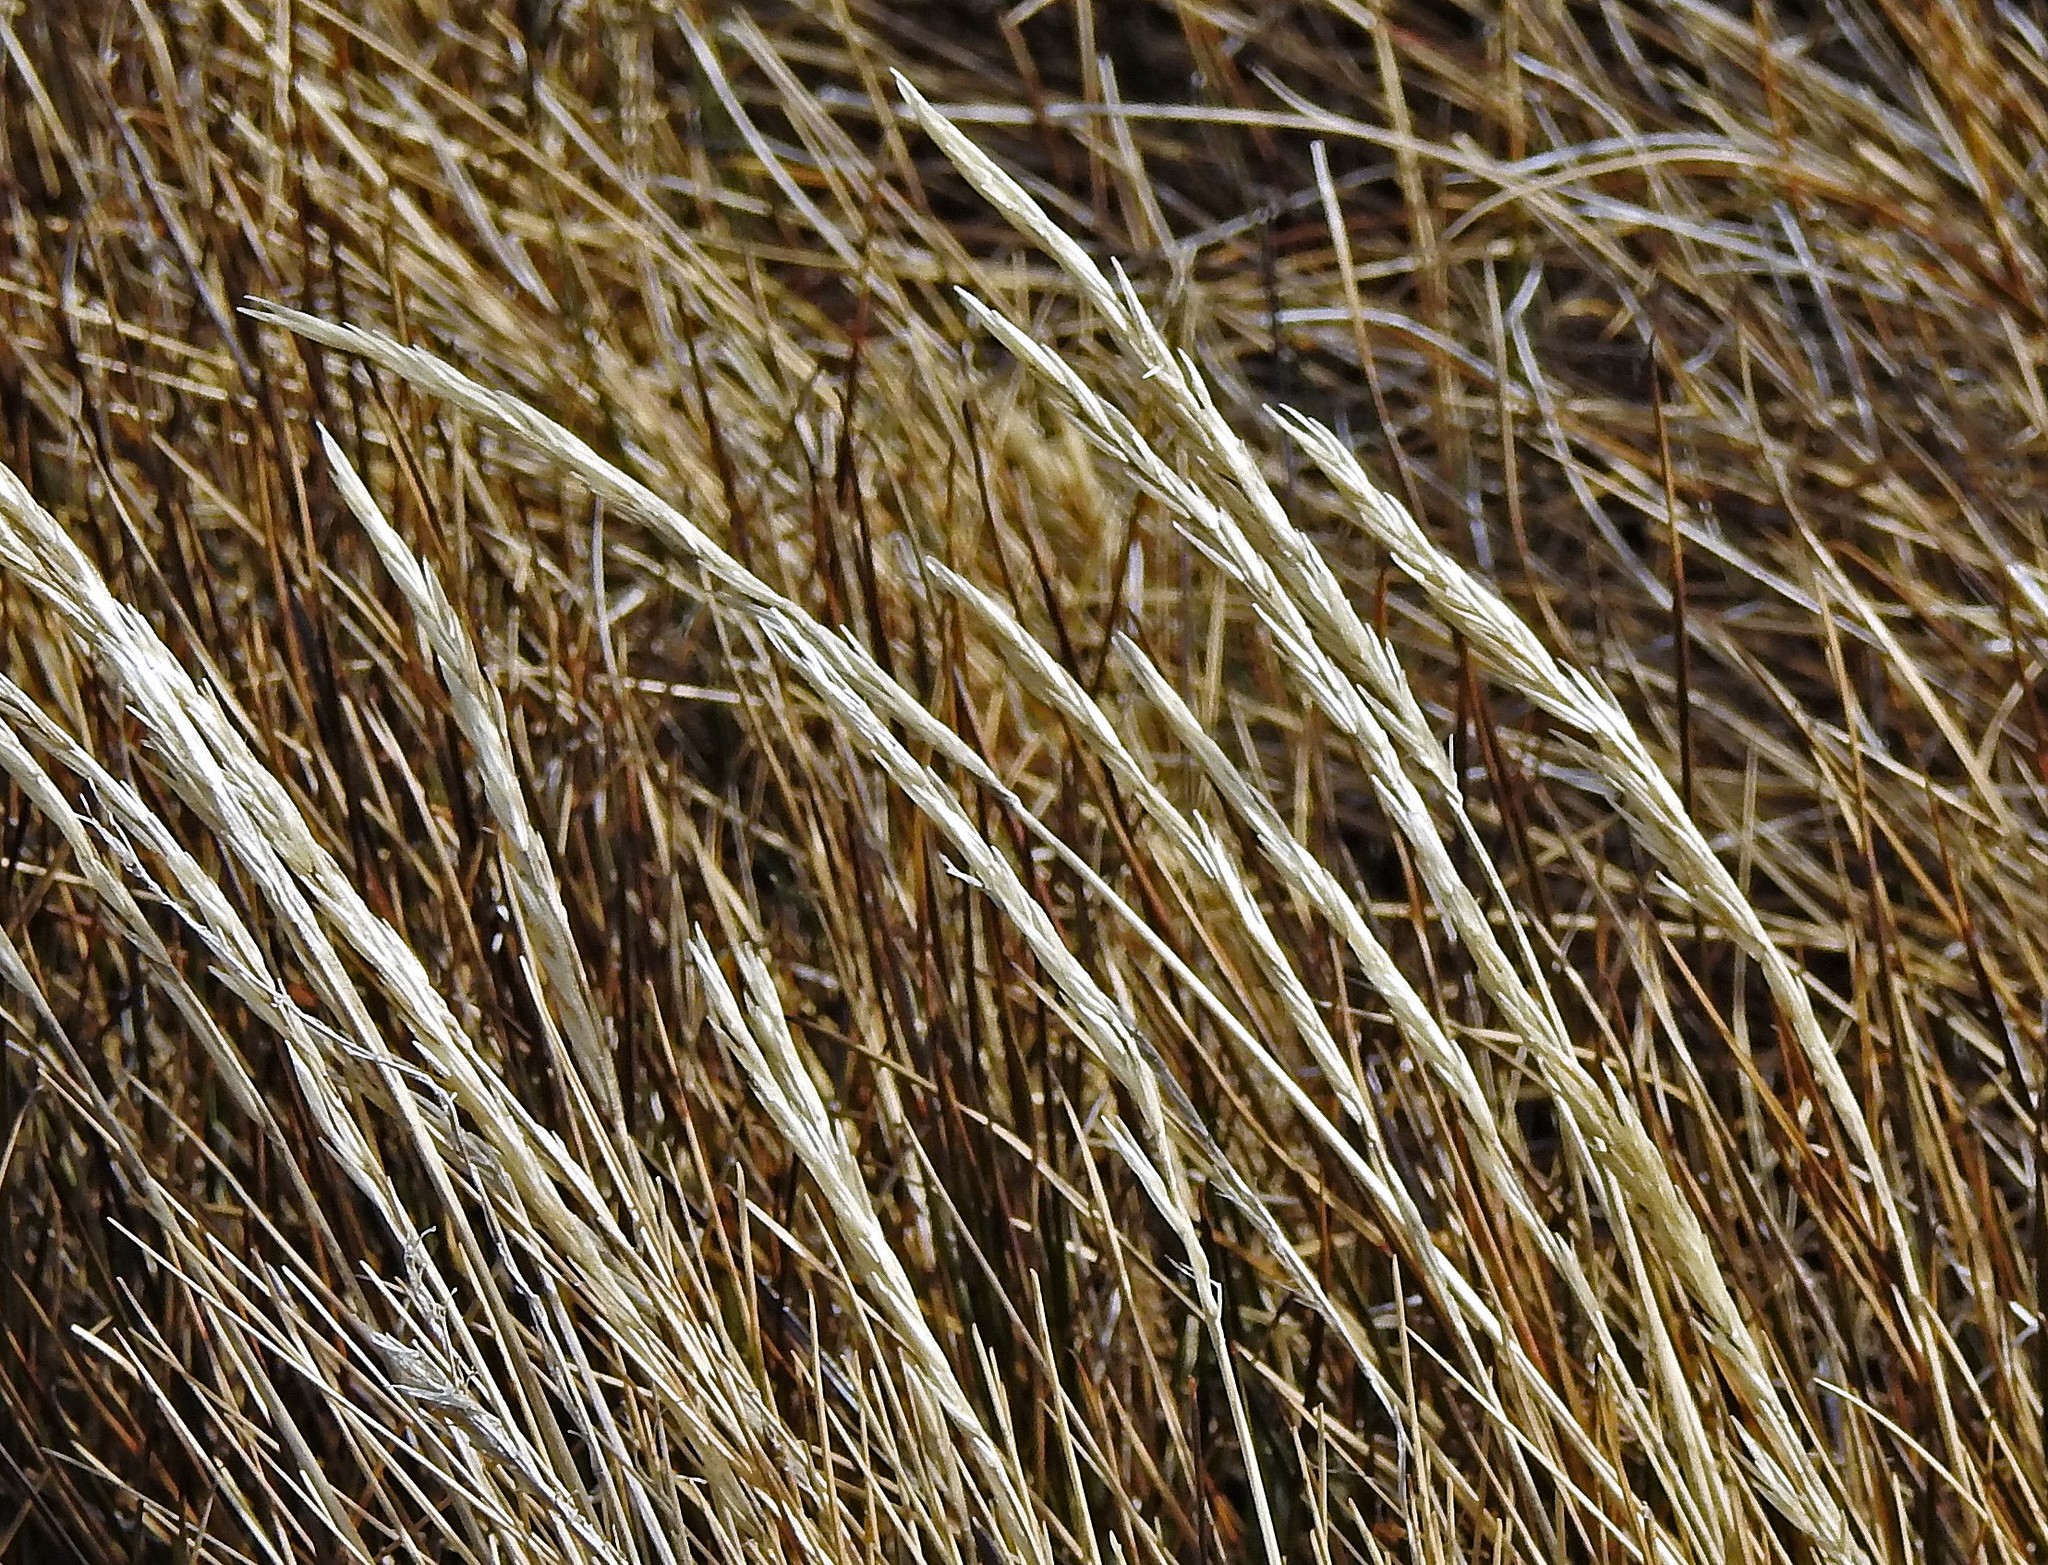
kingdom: Plantae
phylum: Tracheophyta
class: Liliopsida
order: Poales
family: Poaceae
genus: Festuca
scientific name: Festuca contracta
